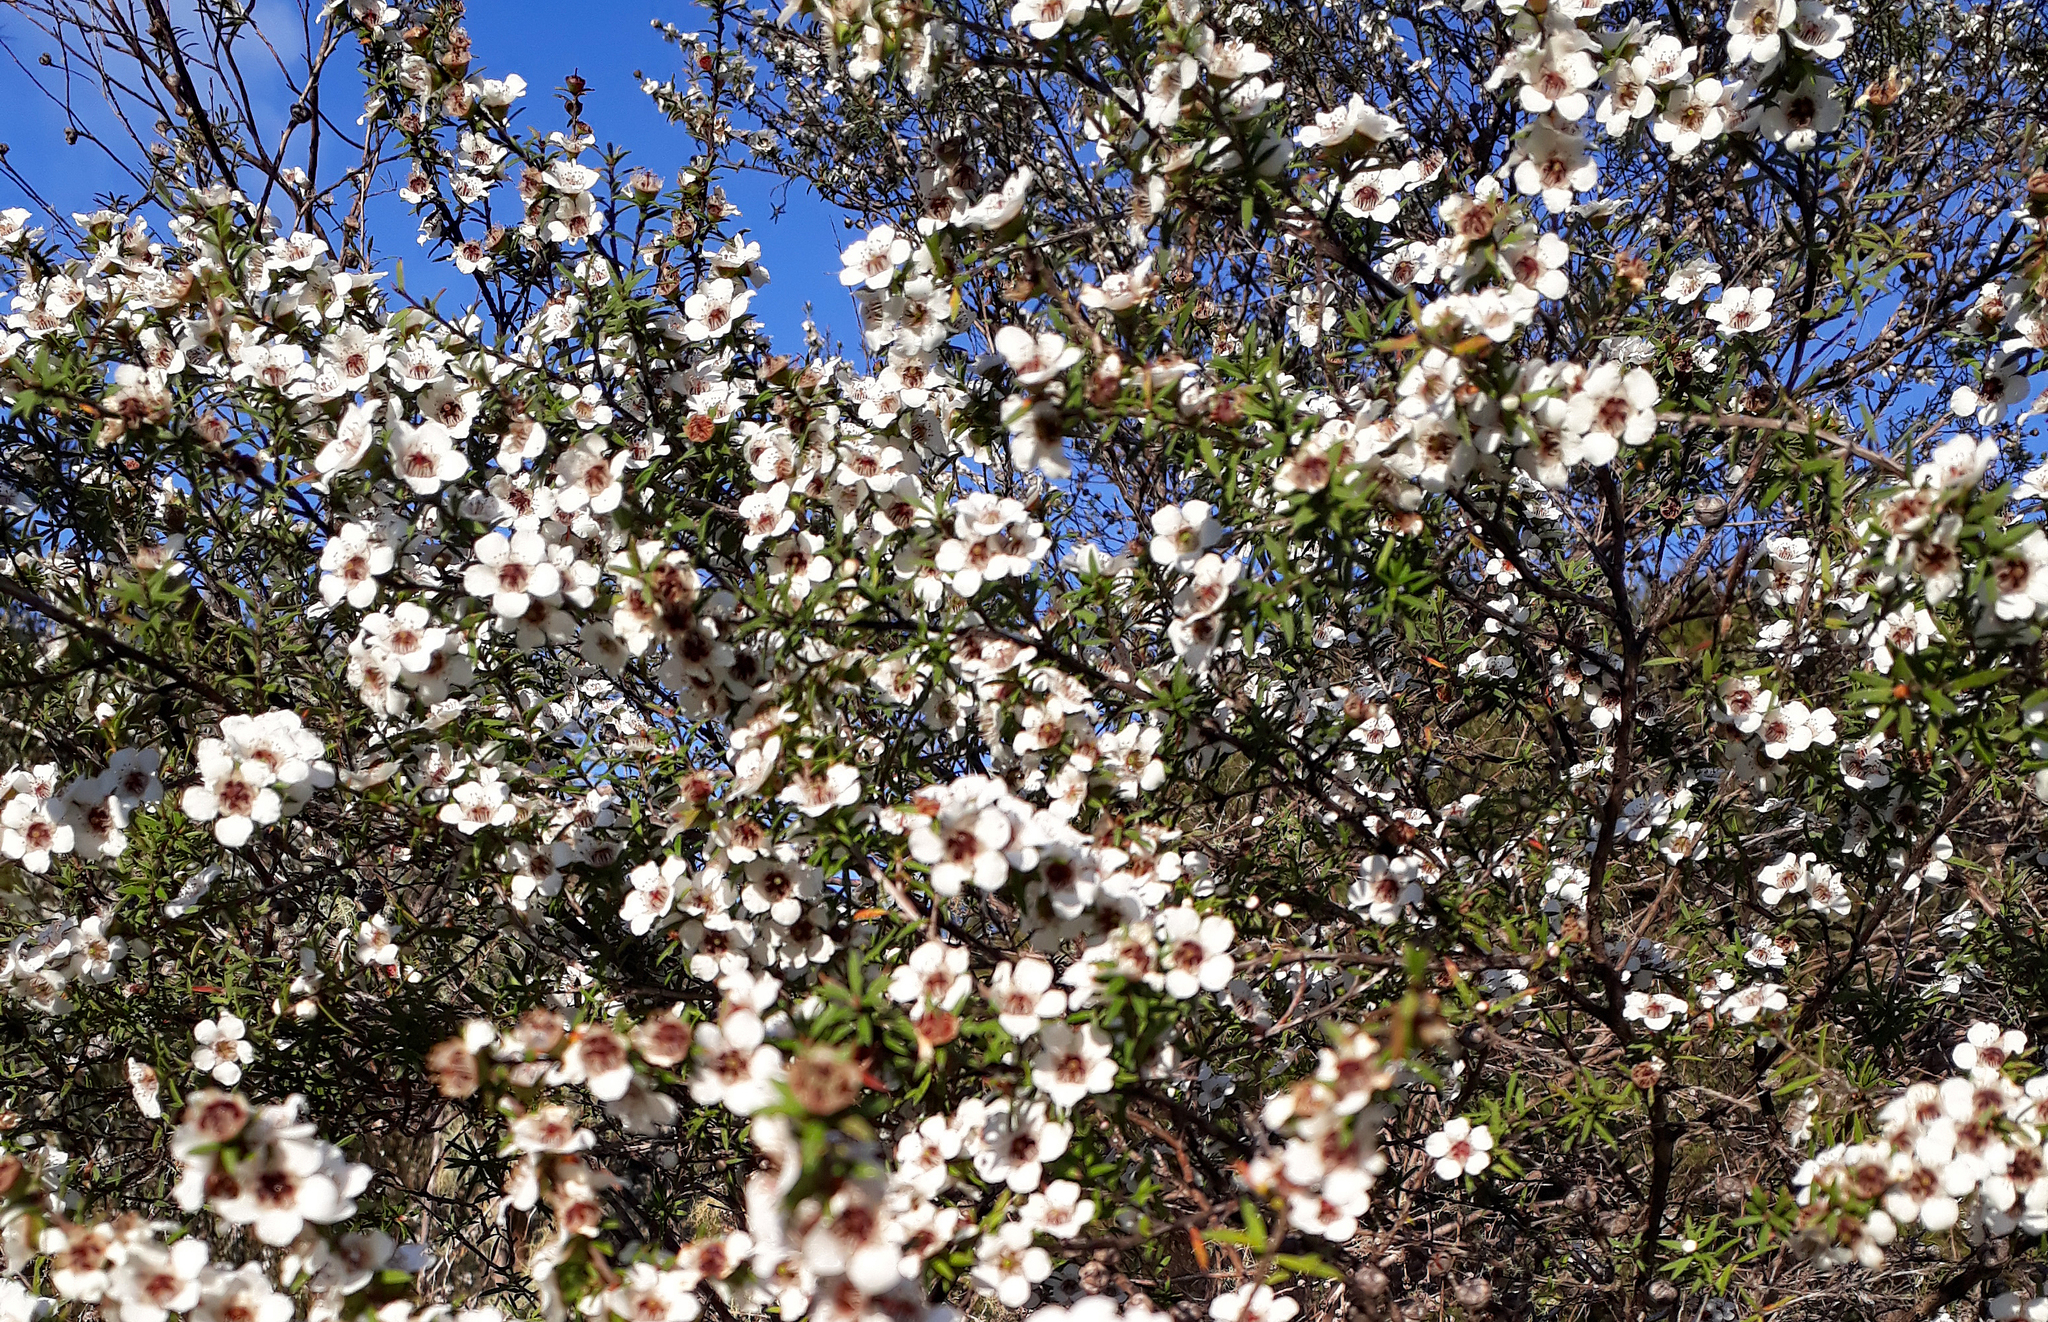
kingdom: Plantae
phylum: Tracheophyta
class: Magnoliopsida
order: Myrtales
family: Myrtaceae
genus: Leptospermum
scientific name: Leptospermum scoparium
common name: Broom tea-tree
